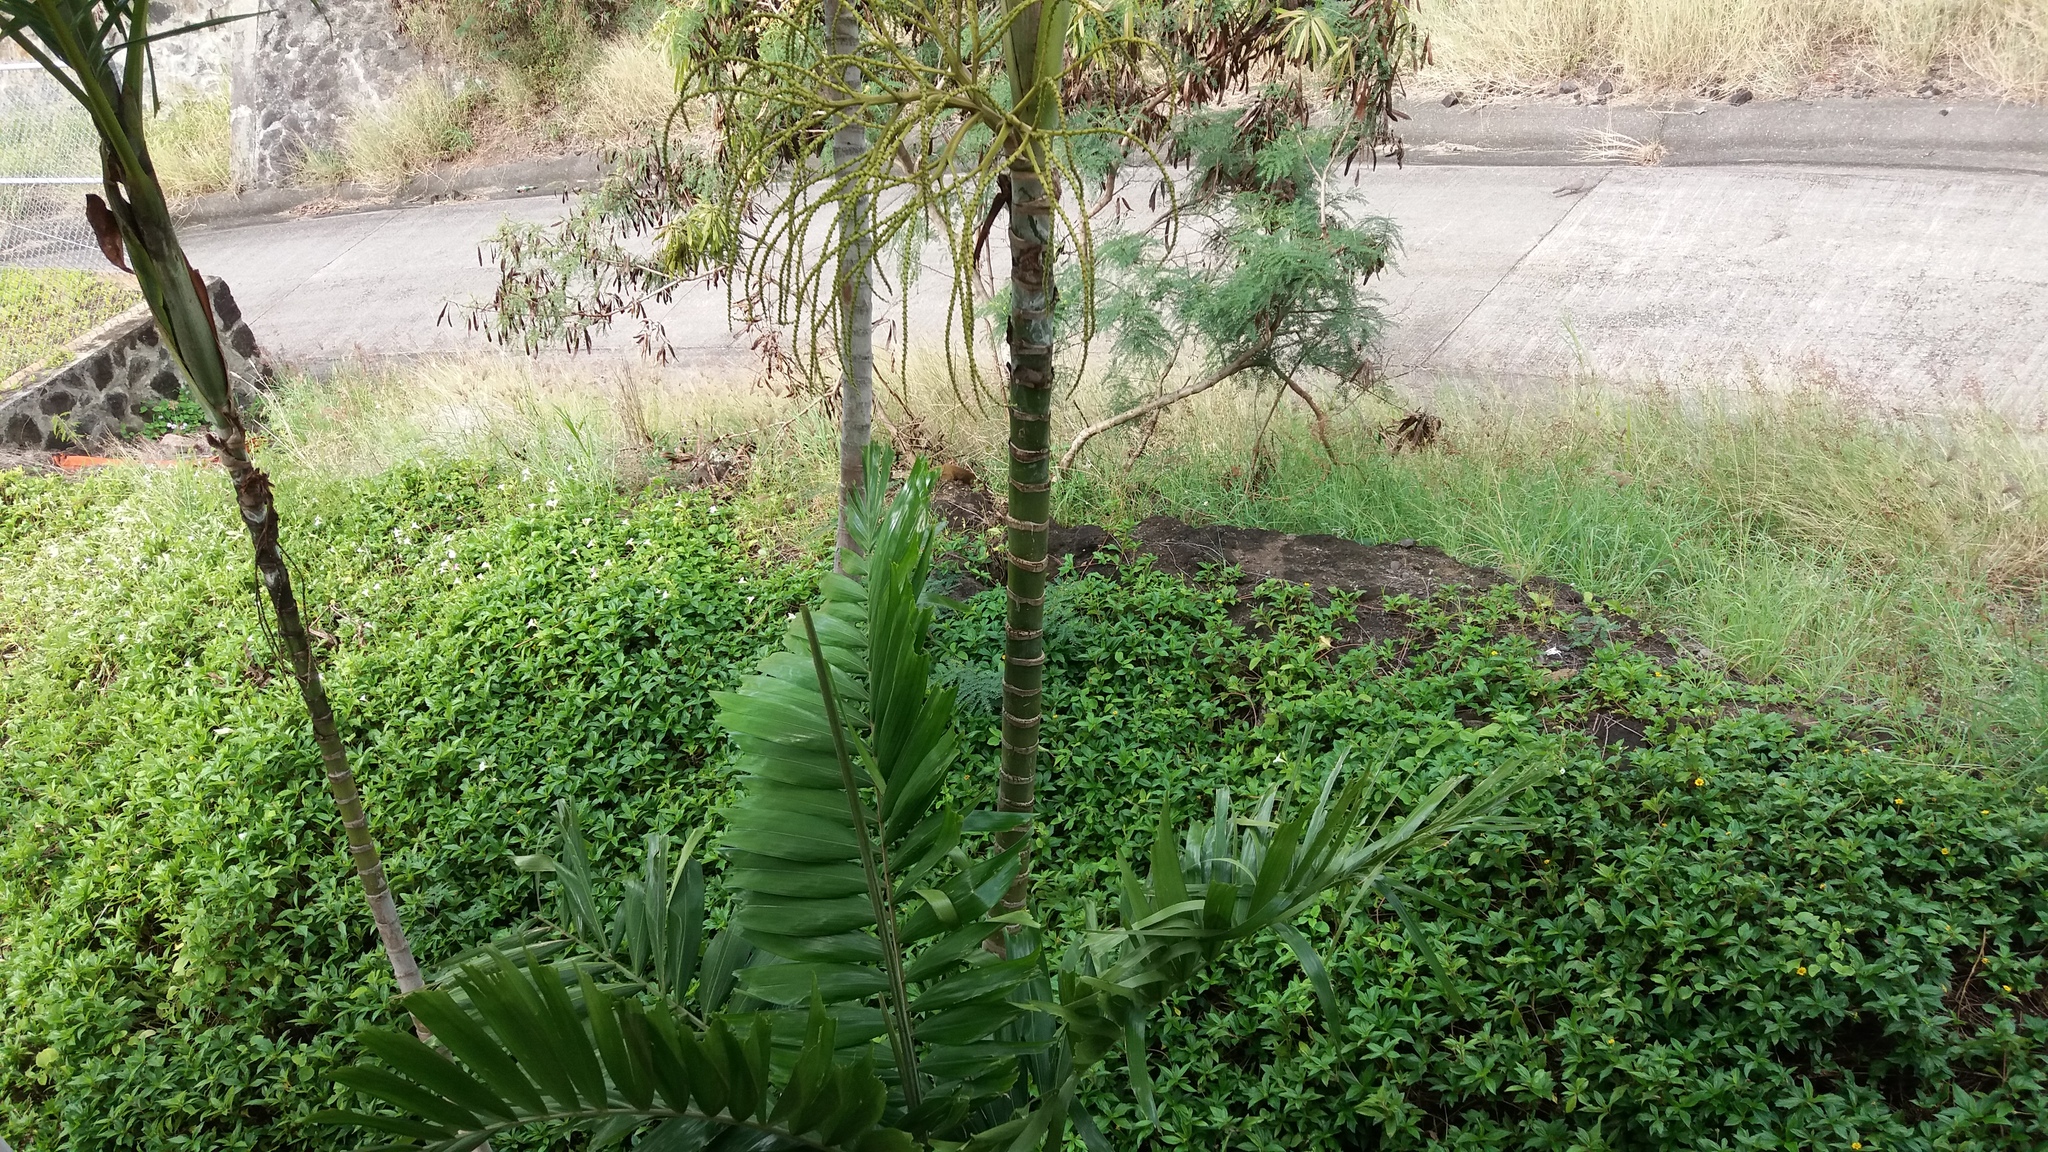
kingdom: Animalia
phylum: Chordata
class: Mammalia
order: Carnivora
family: Herpestidae
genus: Herpestes
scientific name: Herpestes javanicus
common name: Small asian mongoose
